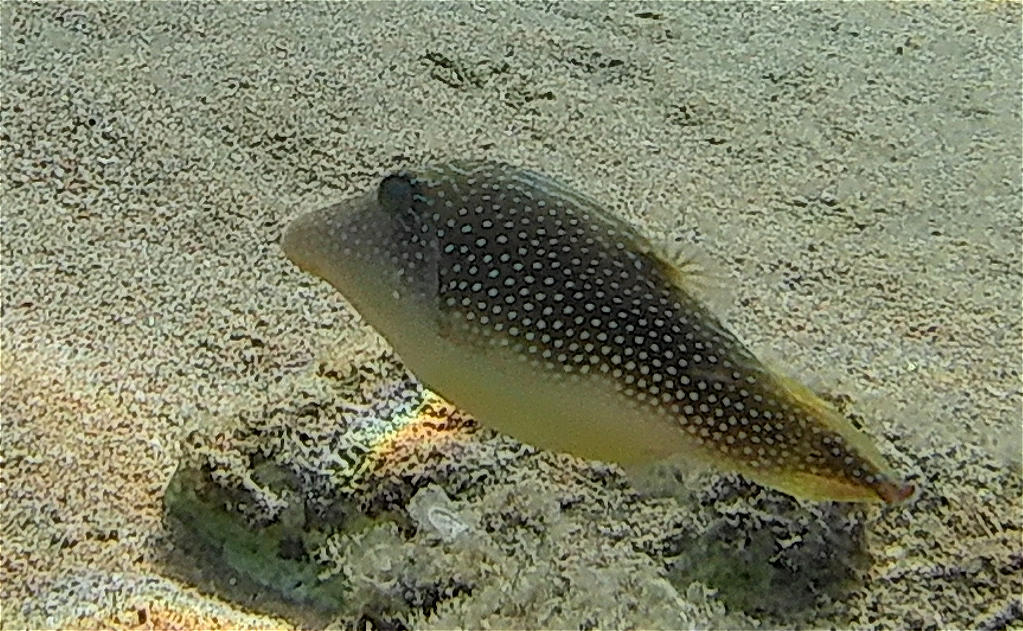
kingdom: Animalia
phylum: Chordata
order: Tetraodontiformes
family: Tetraodontidae
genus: Canthigaster
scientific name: Canthigaster margaritata
